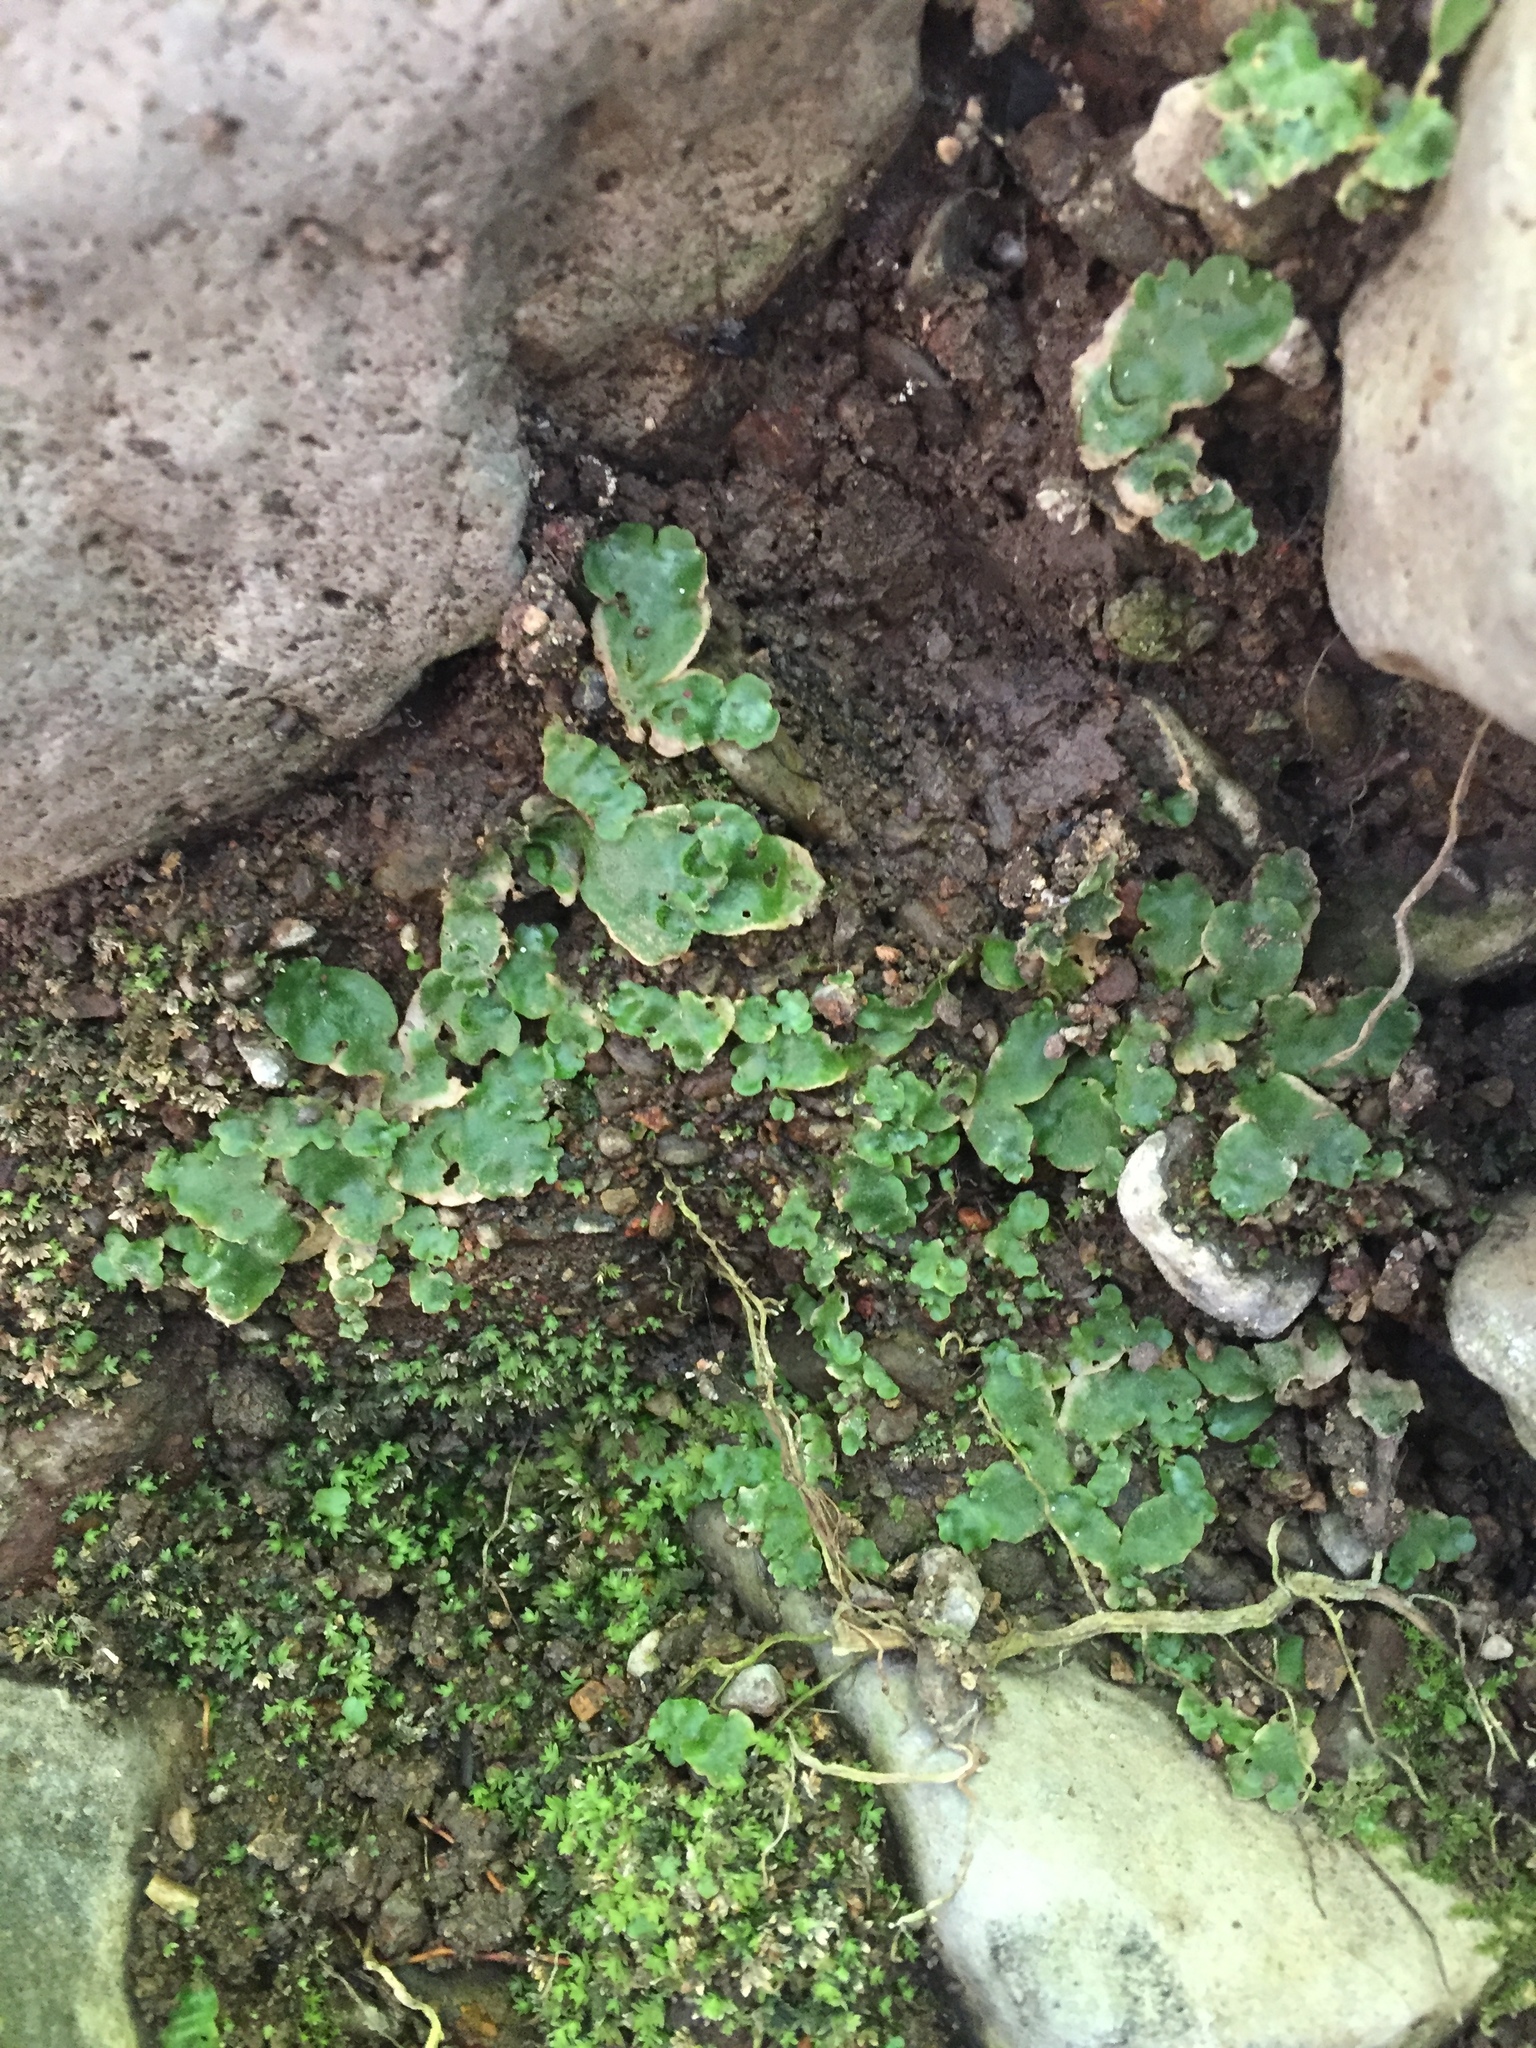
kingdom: Plantae
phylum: Marchantiophyta
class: Marchantiopsida
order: Lunulariales
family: Lunulariaceae
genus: Lunularia
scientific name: Lunularia cruciata
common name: Crescent-cup liverwort
